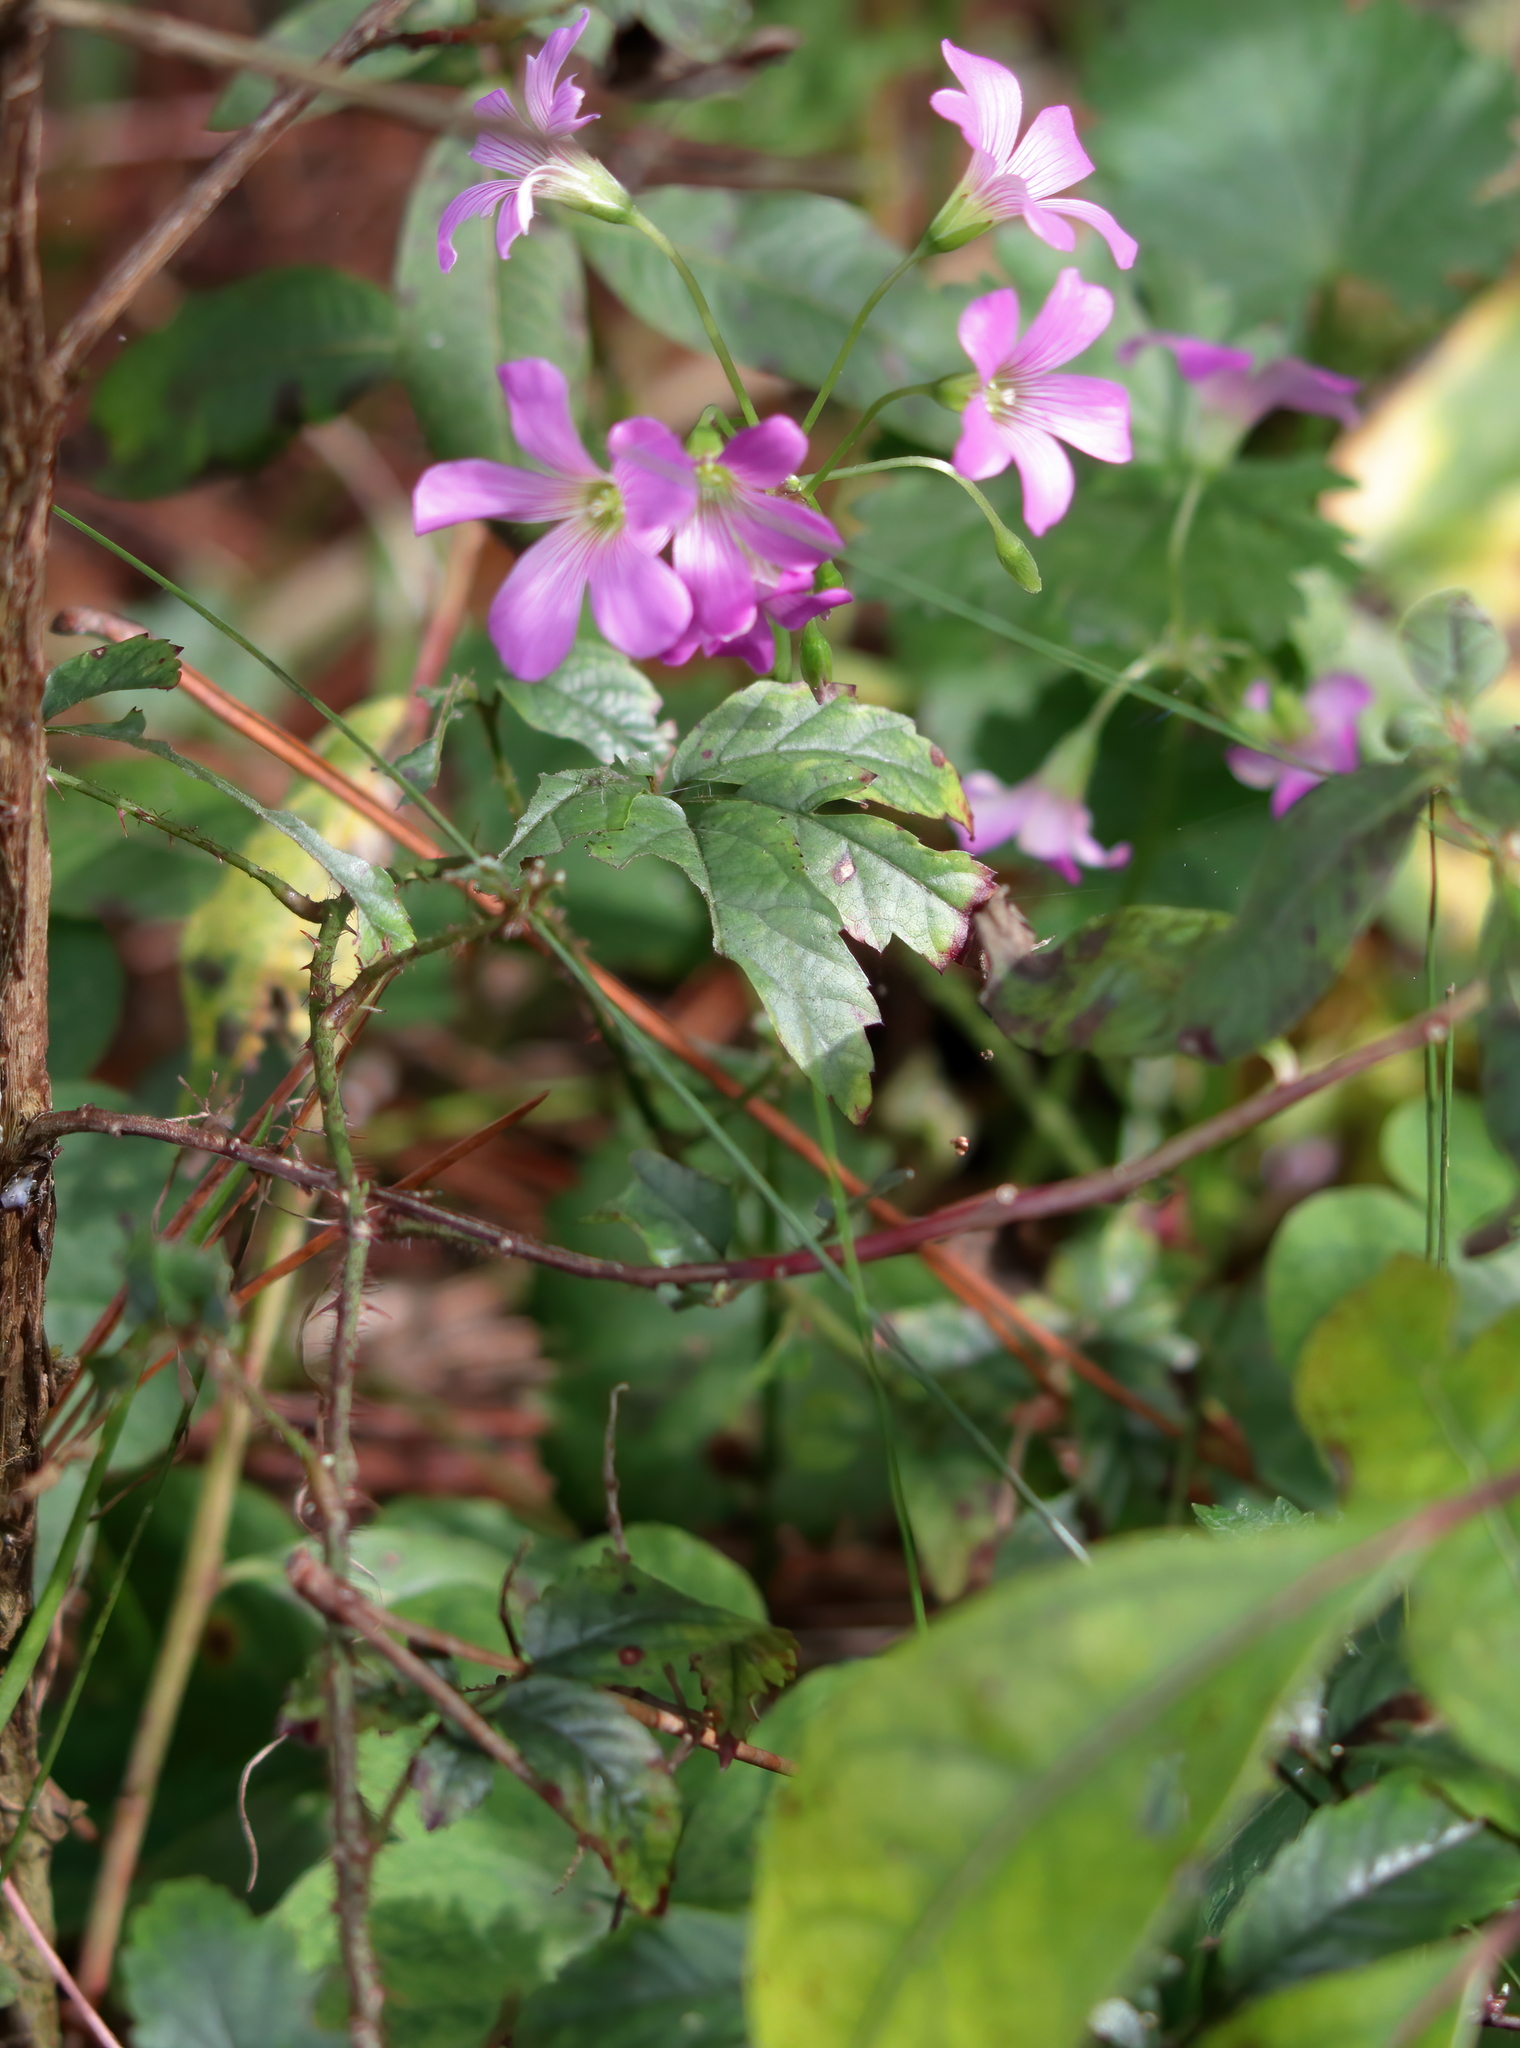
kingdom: Plantae
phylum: Tracheophyta
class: Magnoliopsida
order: Oxalidales
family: Oxalidaceae
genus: Oxalis
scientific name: Oxalis debilis
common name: Large-flowered pink-sorrel
